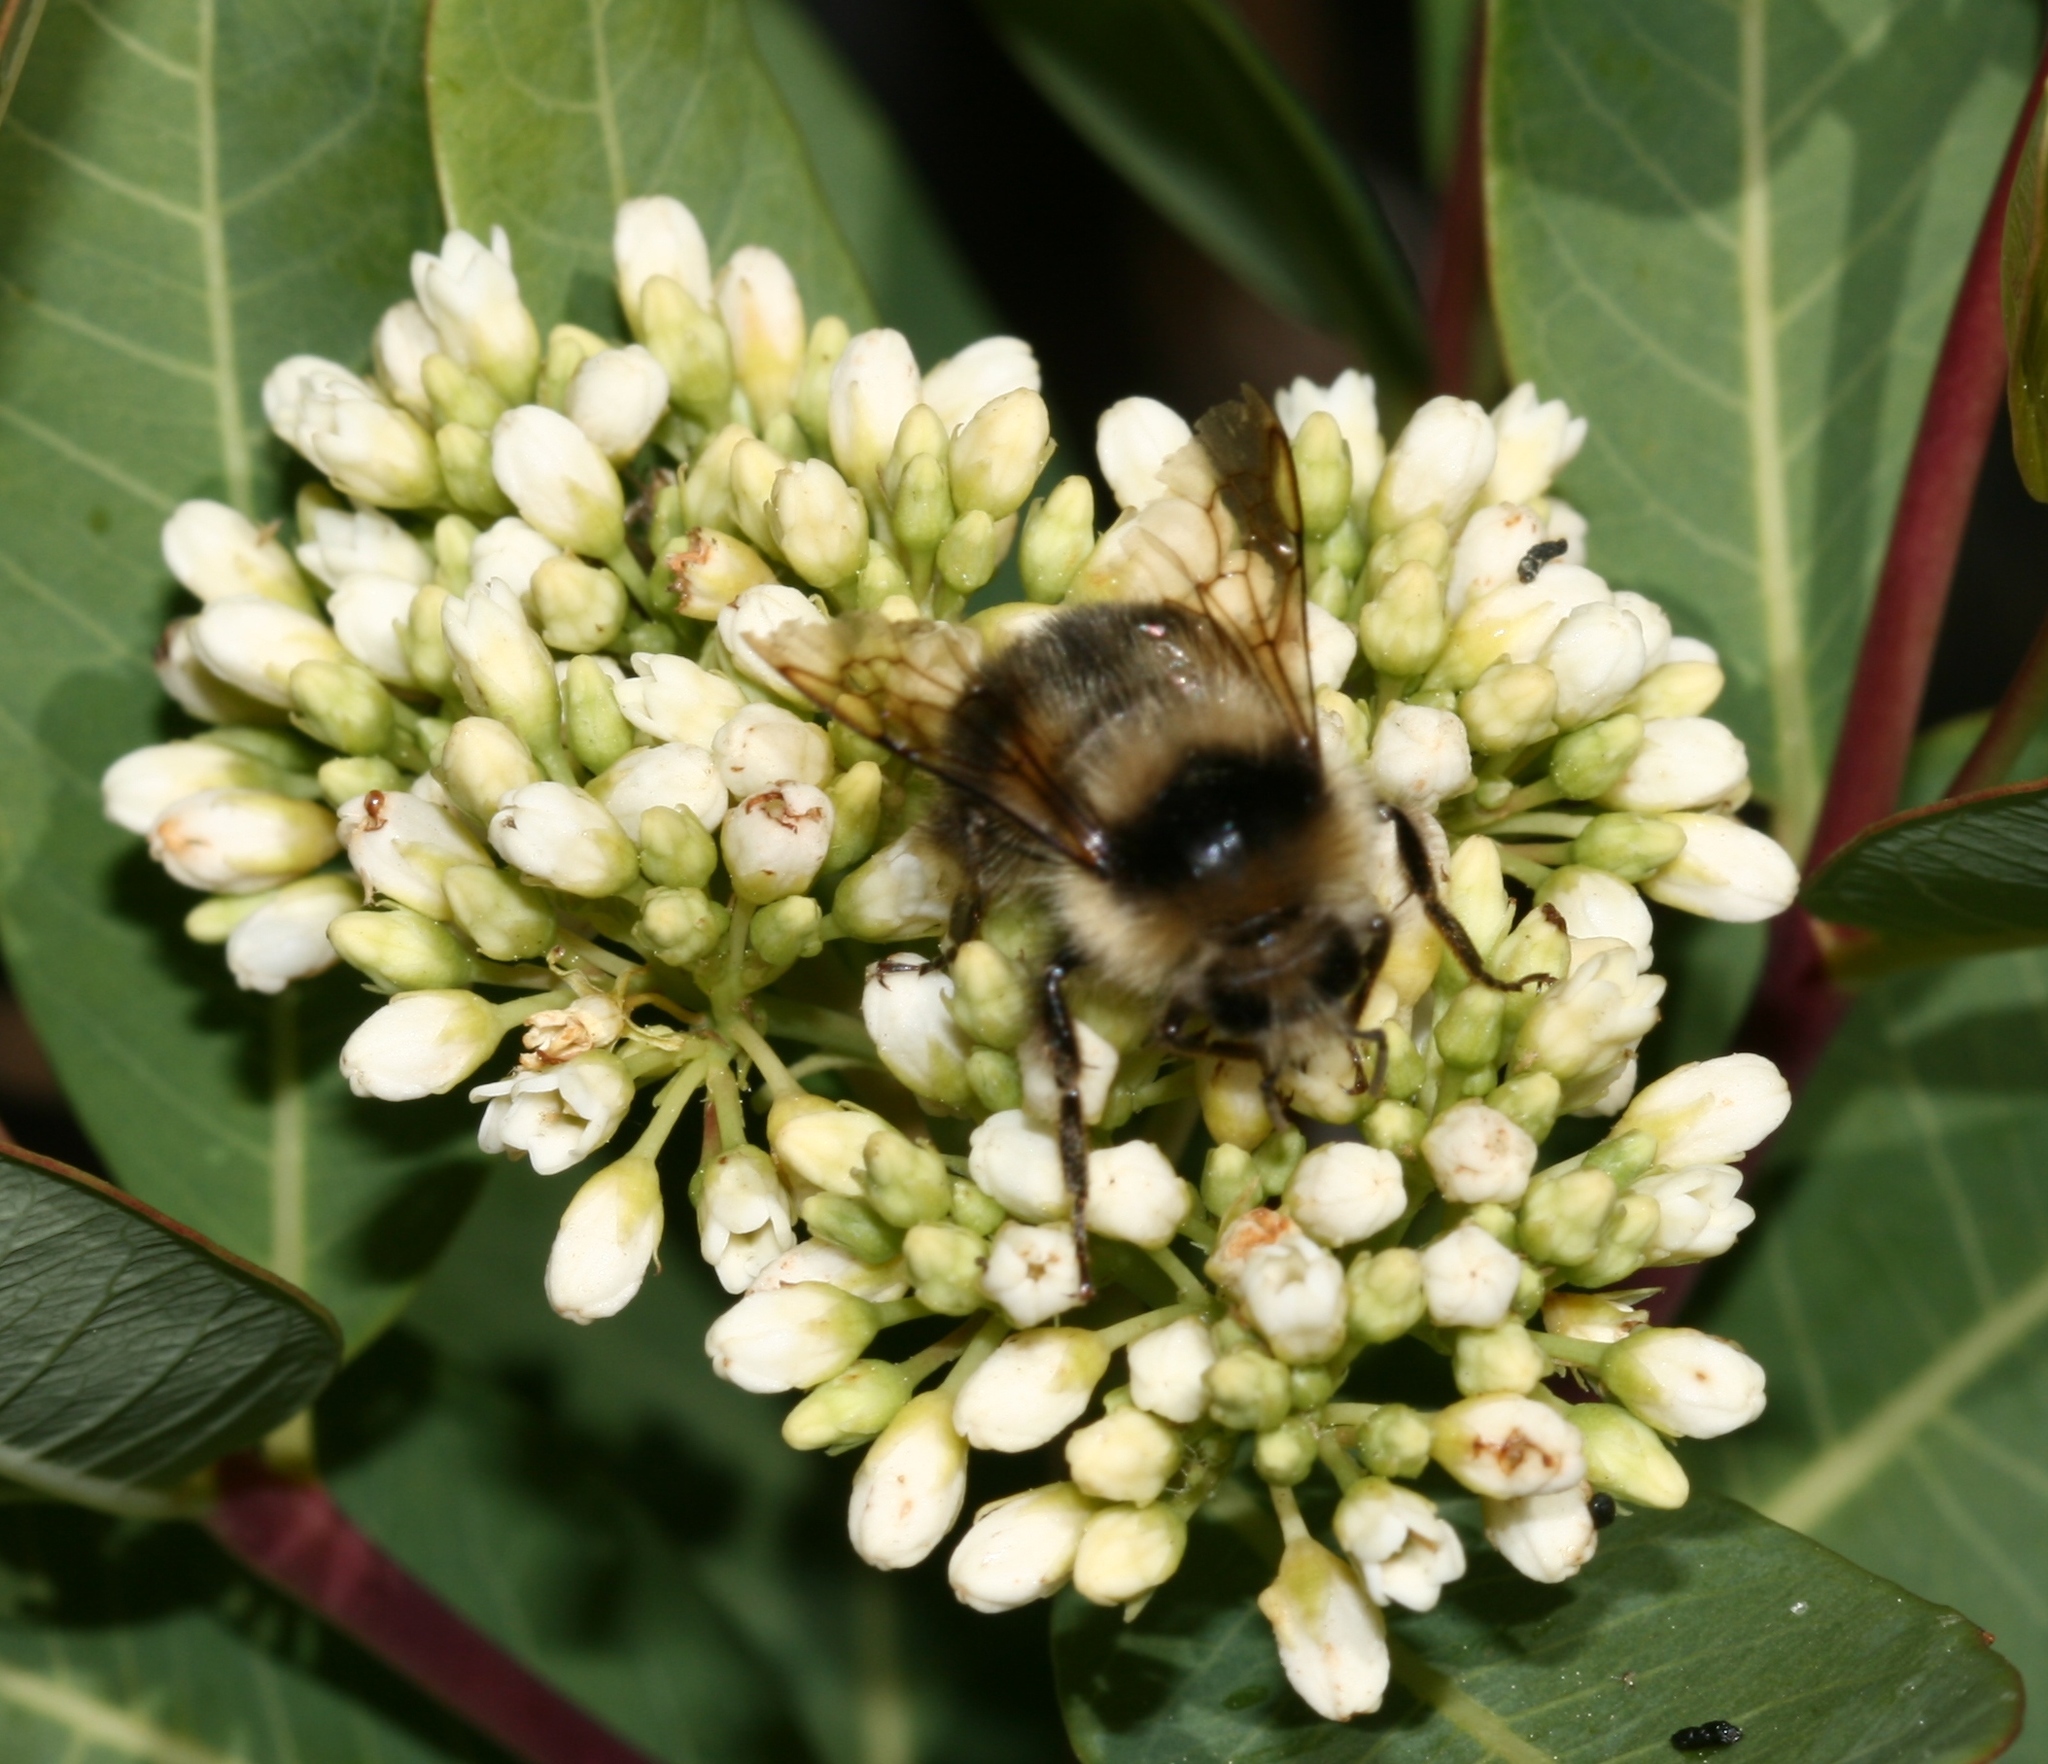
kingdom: Animalia
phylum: Arthropoda
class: Insecta
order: Hymenoptera
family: Apidae
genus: Bombus
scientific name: Bombus melanopygus
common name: Black tail bumble bee
